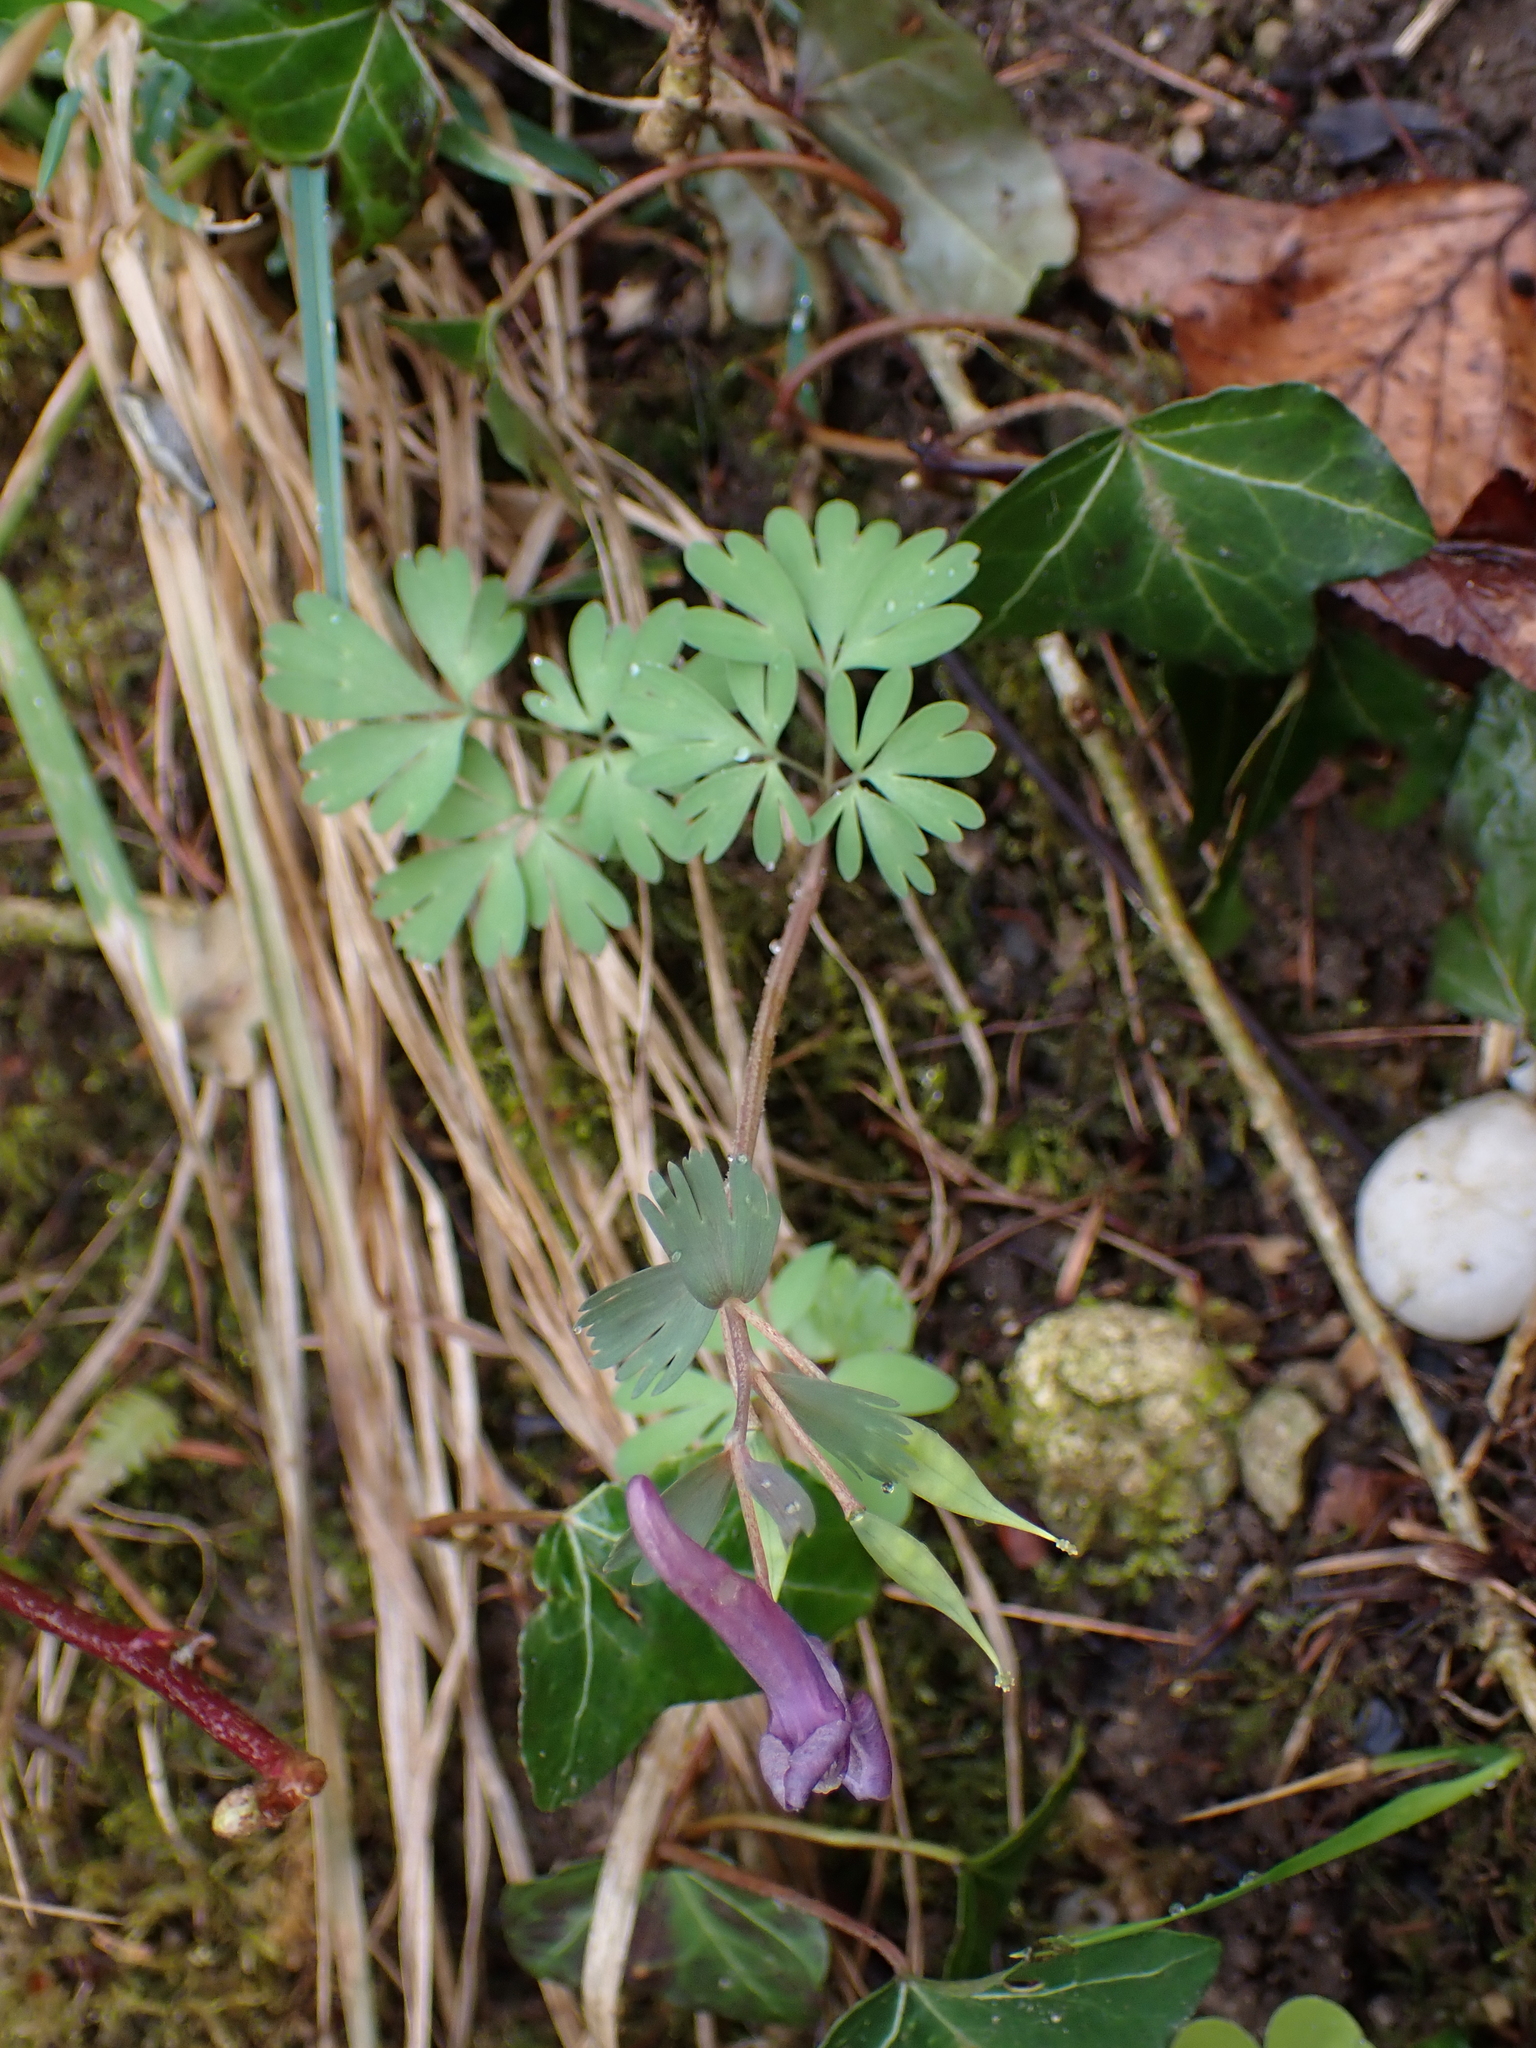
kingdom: Plantae
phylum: Tracheophyta
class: Magnoliopsida
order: Ranunculales
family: Papaveraceae
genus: Corydalis
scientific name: Corydalis solida
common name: Bird-in-a-bush
